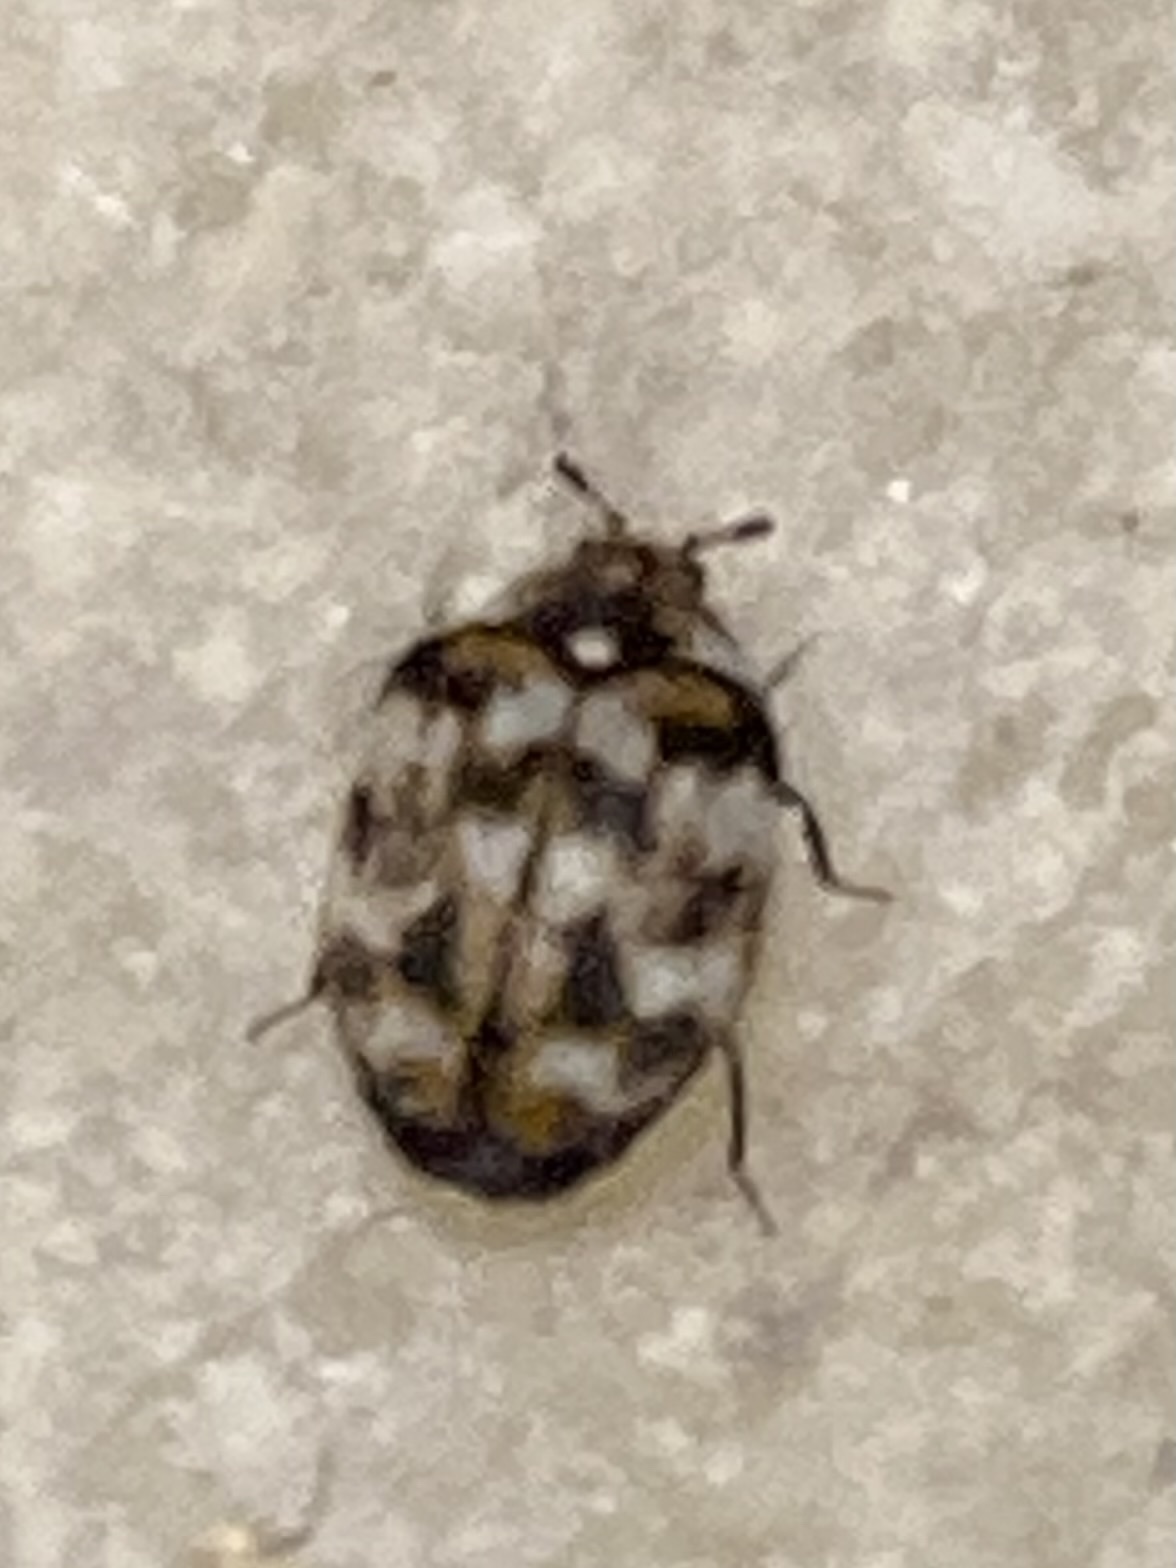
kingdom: Animalia
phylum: Arthropoda
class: Insecta
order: Coleoptera
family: Dermestidae
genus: Anthrenus
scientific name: Anthrenus verbasci
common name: Varied carpet beetle
